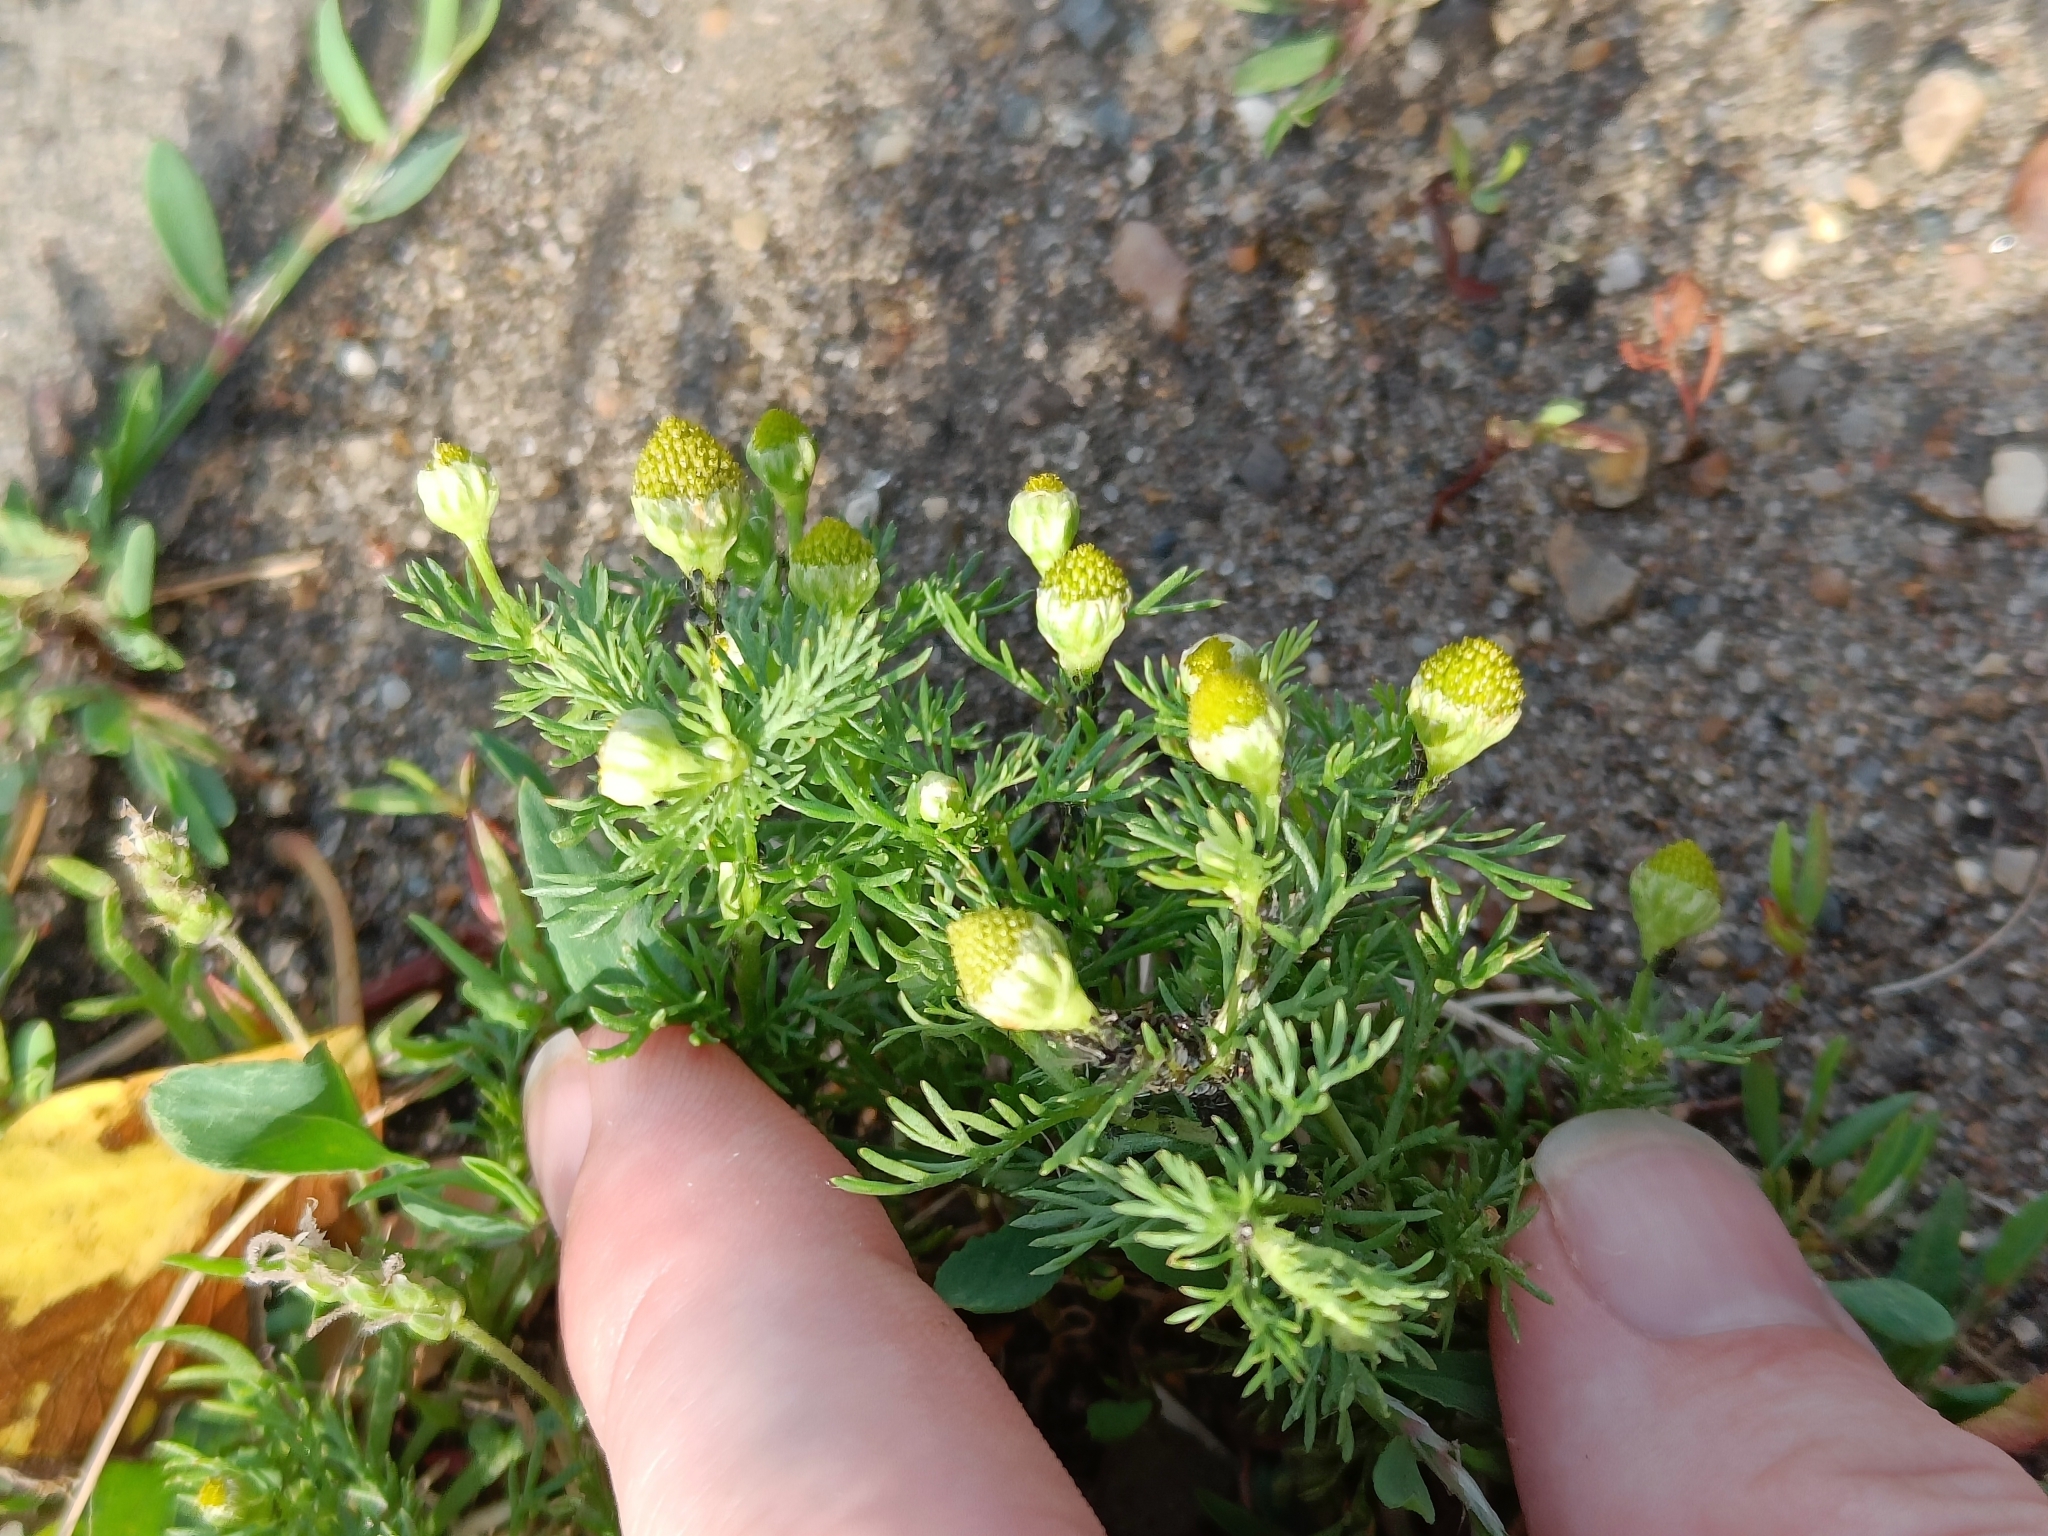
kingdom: Plantae
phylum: Tracheophyta
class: Magnoliopsida
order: Asterales
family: Asteraceae
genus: Matricaria
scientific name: Matricaria discoidea
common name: Disc mayweed
